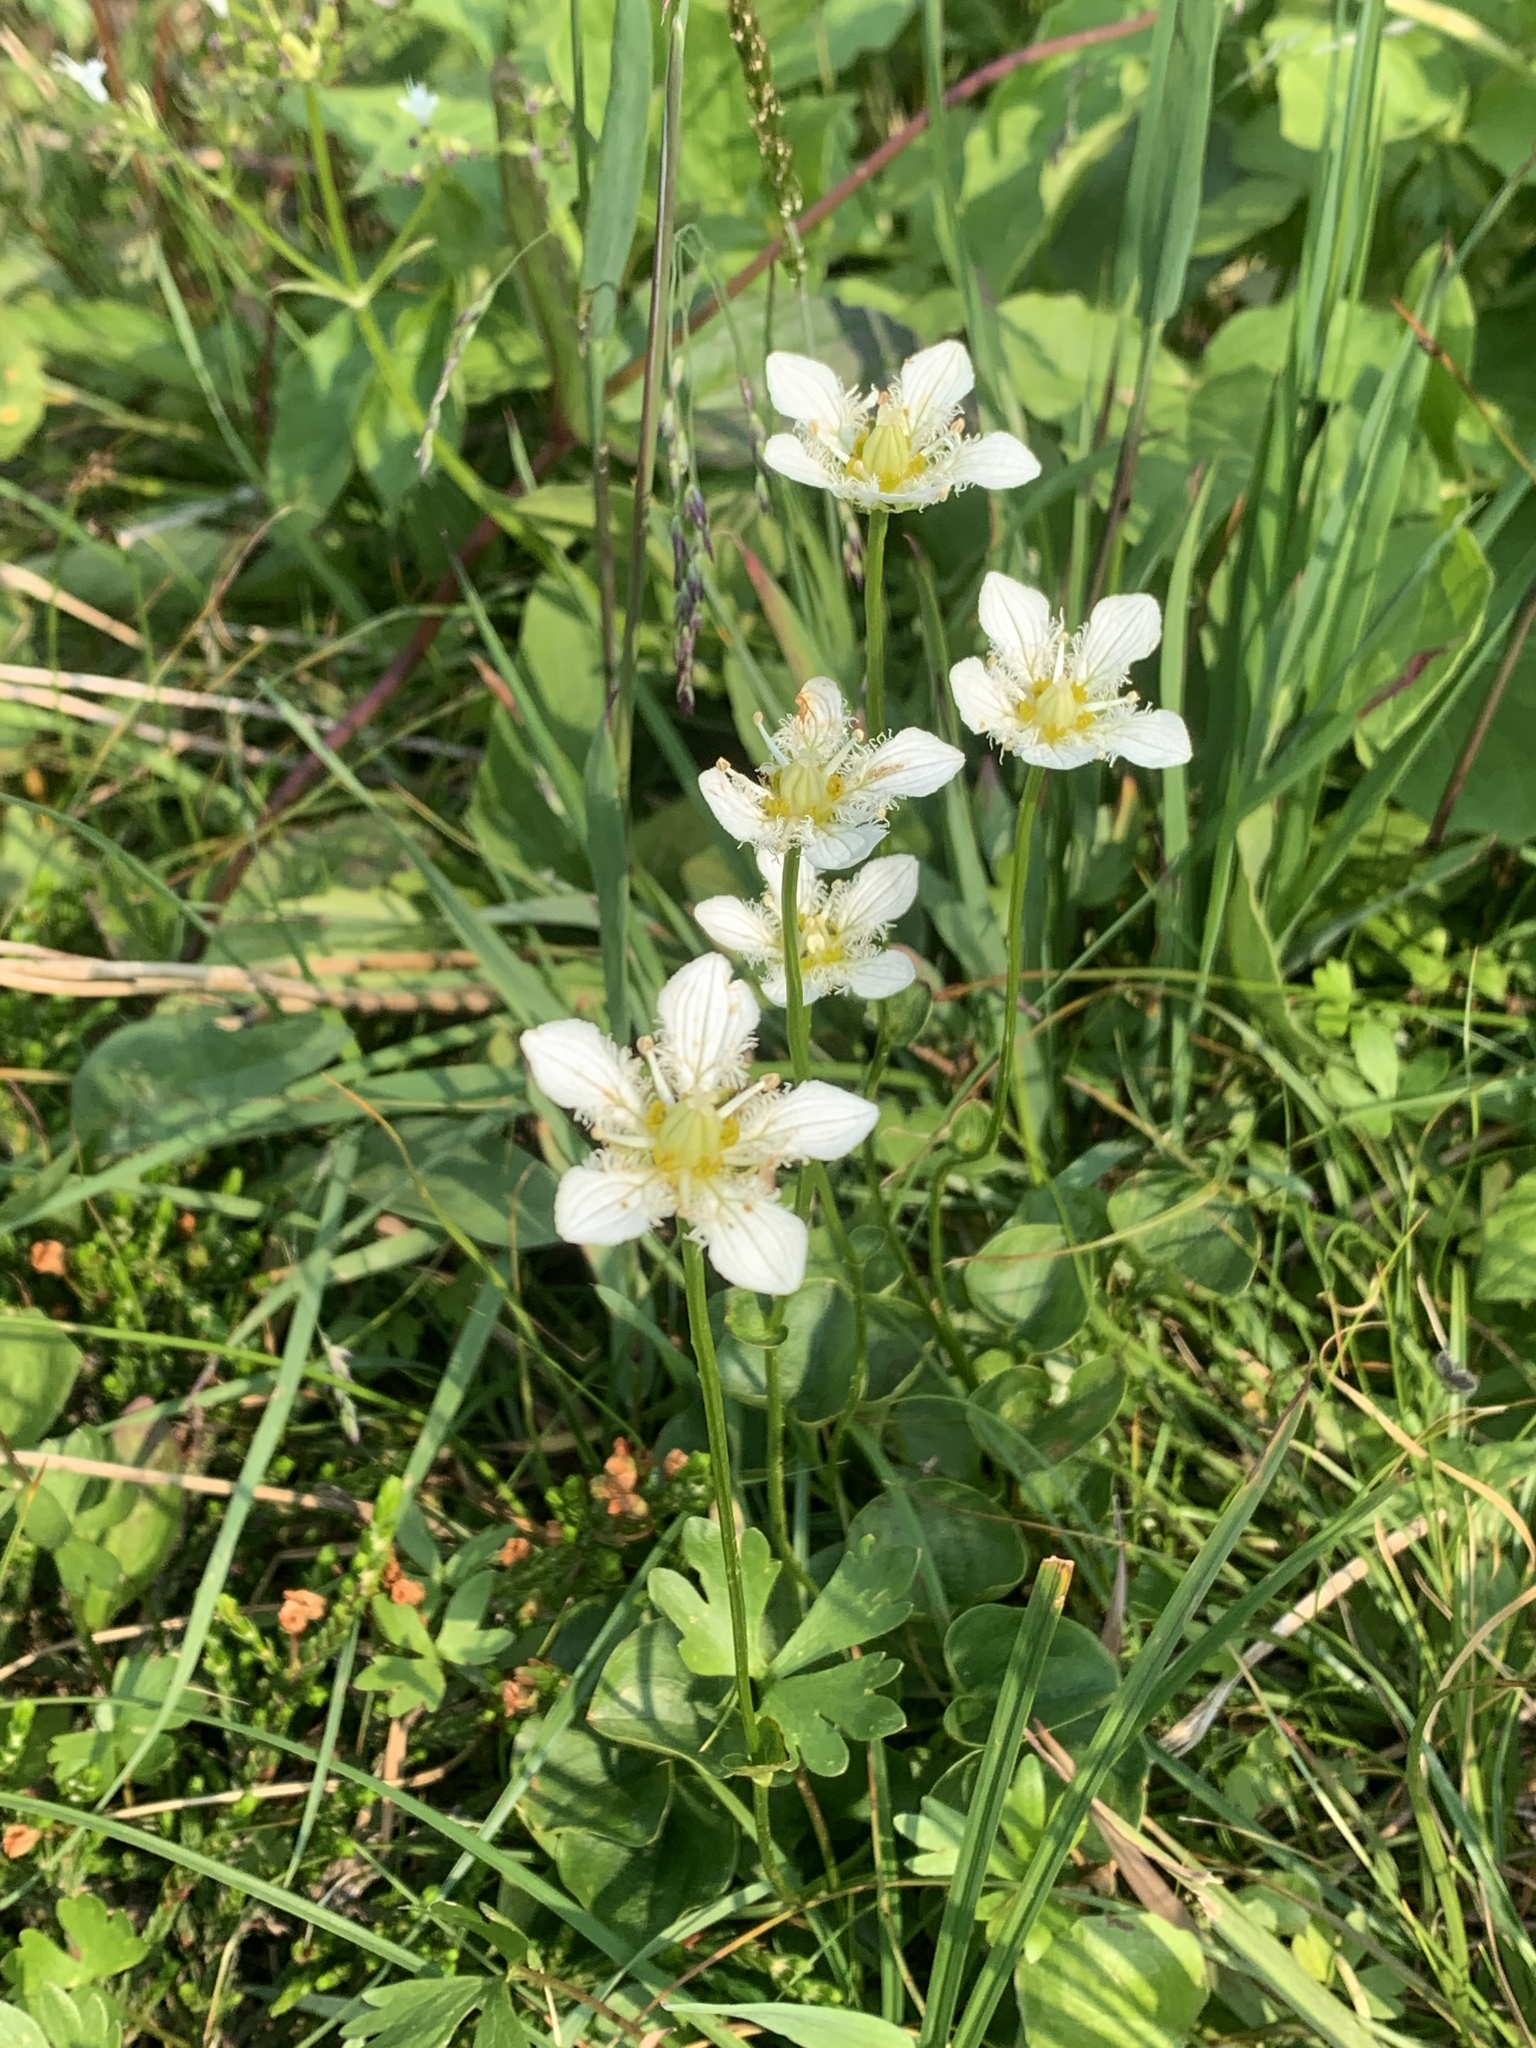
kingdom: Plantae
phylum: Tracheophyta
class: Magnoliopsida
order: Celastrales
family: Parnassiaceae
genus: Parnassia
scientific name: Parnassia fimbriata
